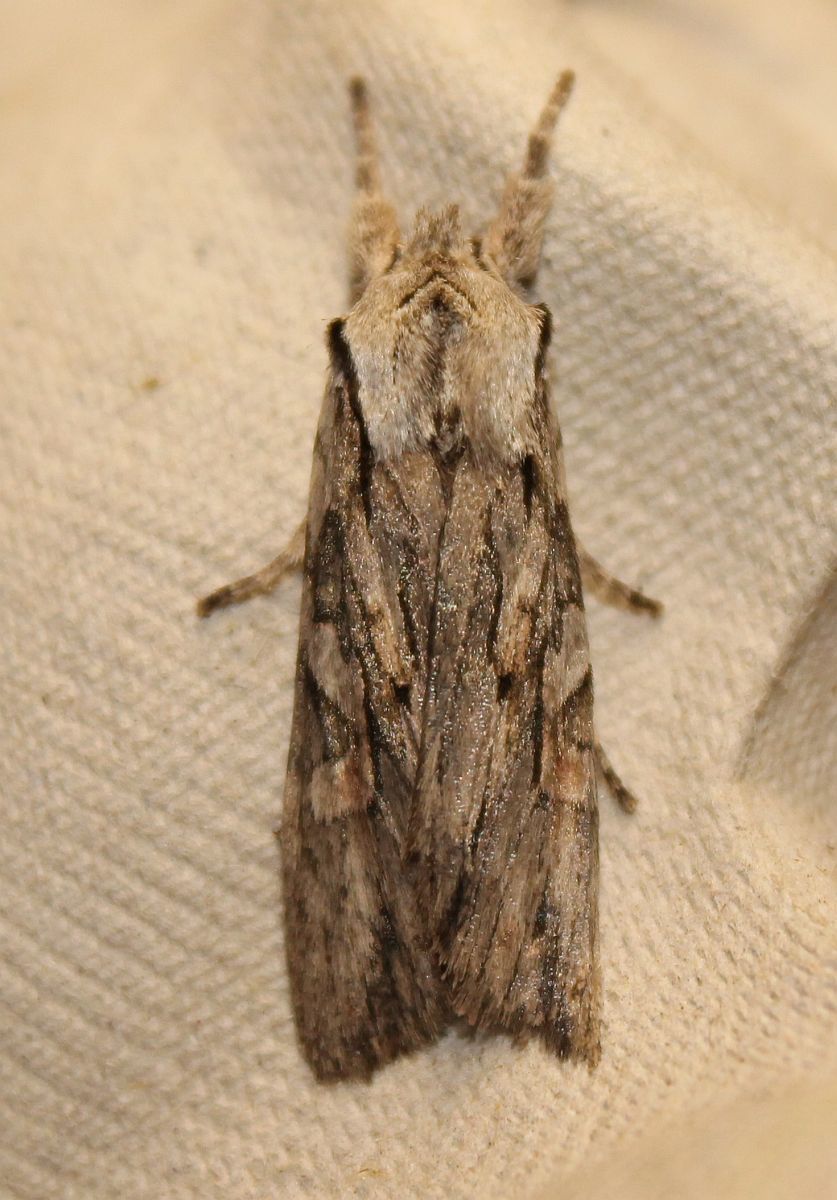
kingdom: Animalia
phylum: Arthropoda
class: Insecta
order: Lepidoptera
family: Noctuidae
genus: Lithophane
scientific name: Lithophane leautieri
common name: Blair's shoulder-knot
